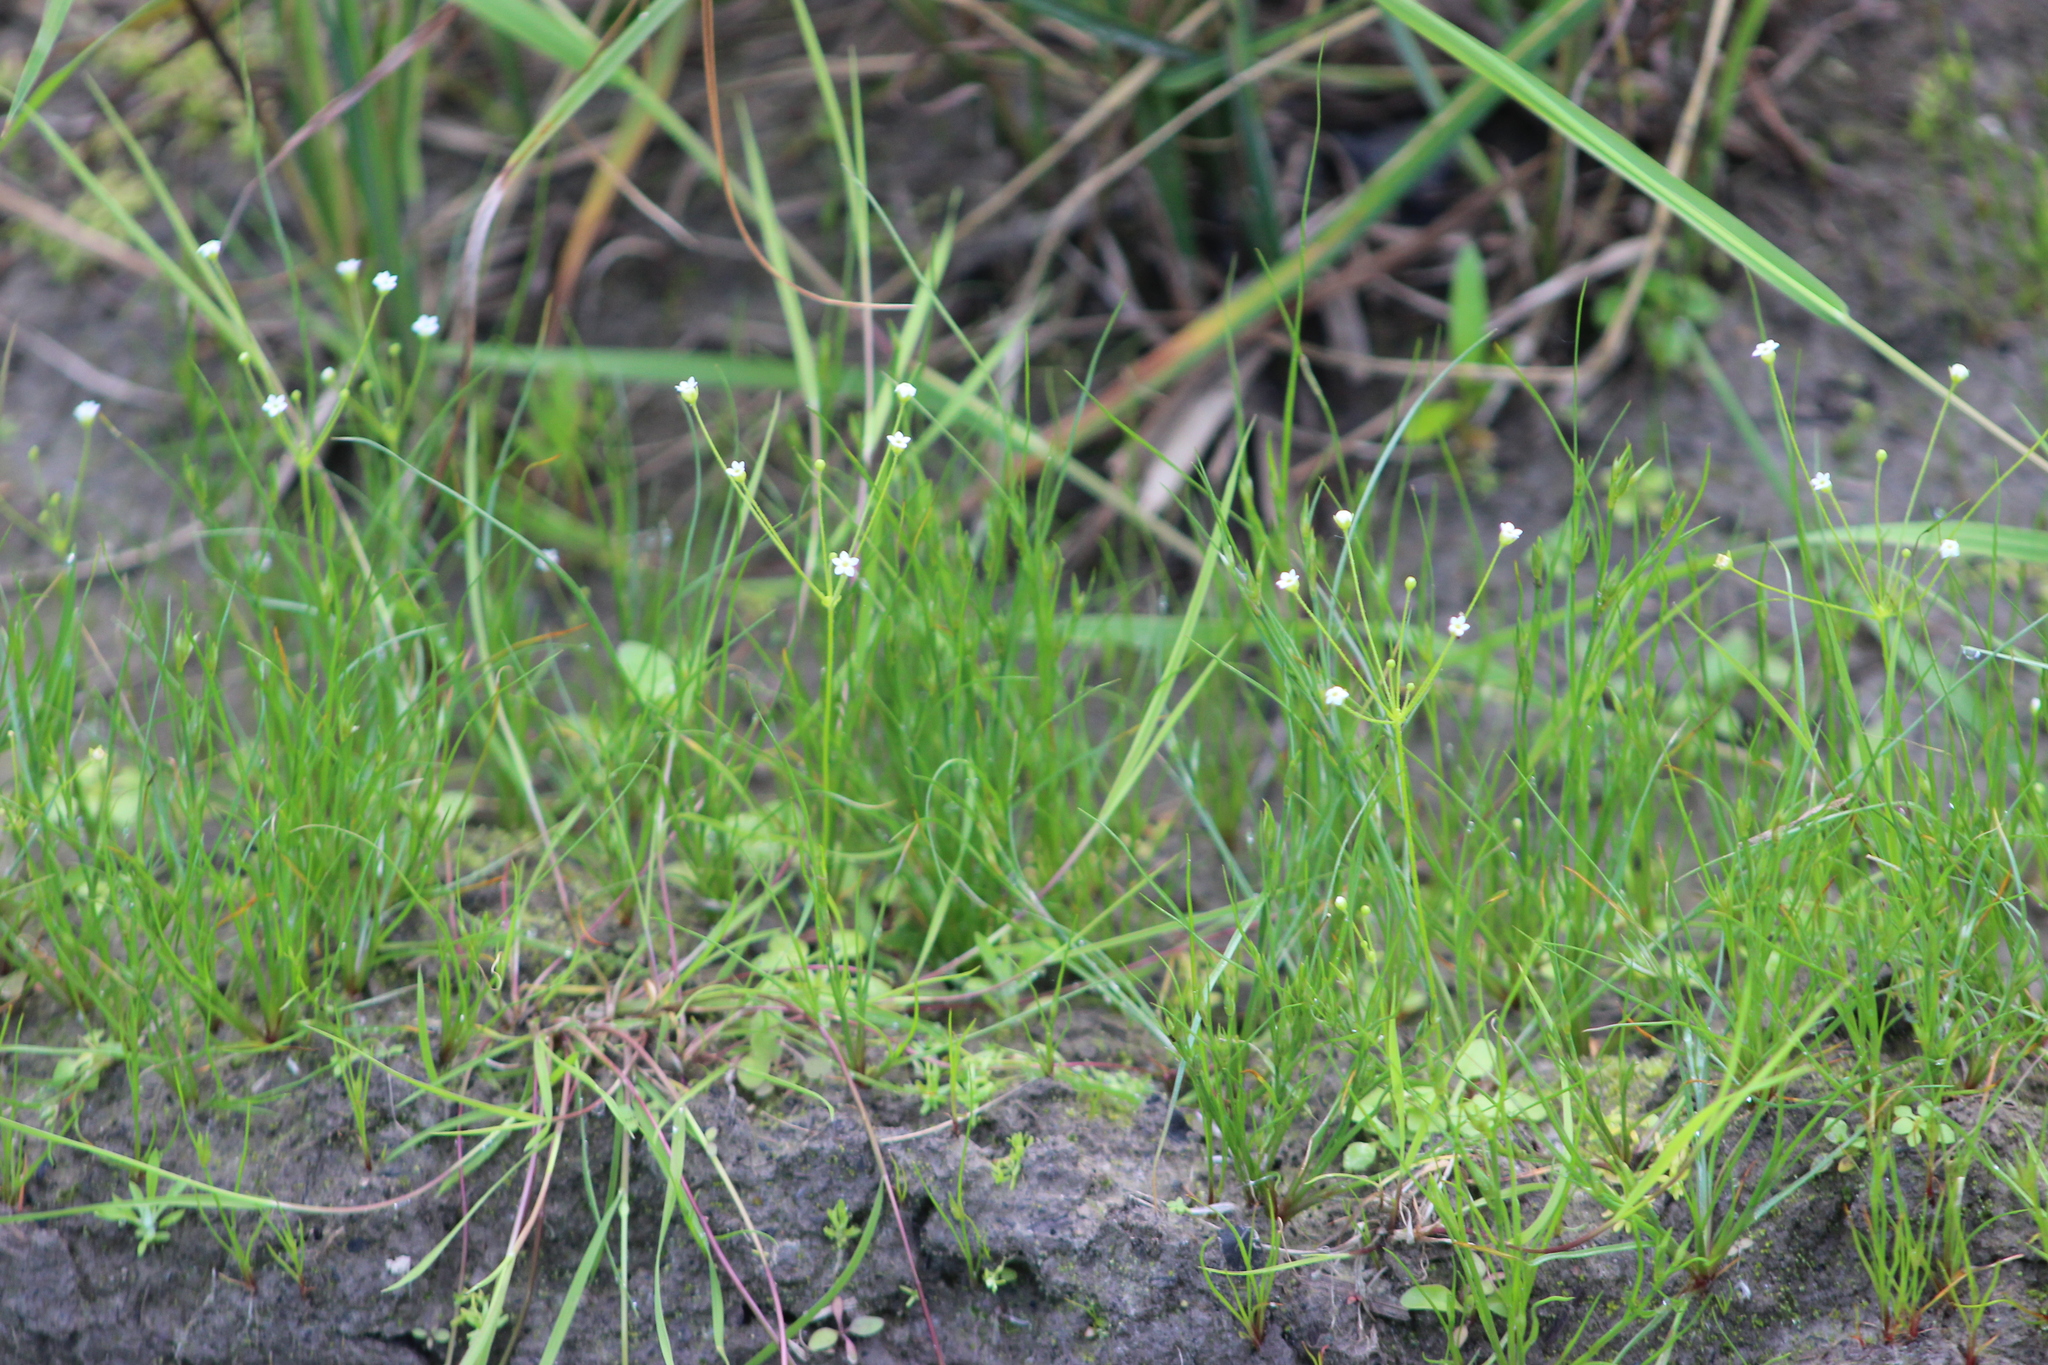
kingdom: Plantae
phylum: Tracheophyta
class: Magnoliopsida
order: Ericales
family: Primulaceae
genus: Androsace
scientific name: Androsace filiformis
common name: Filiform rock jasmine
